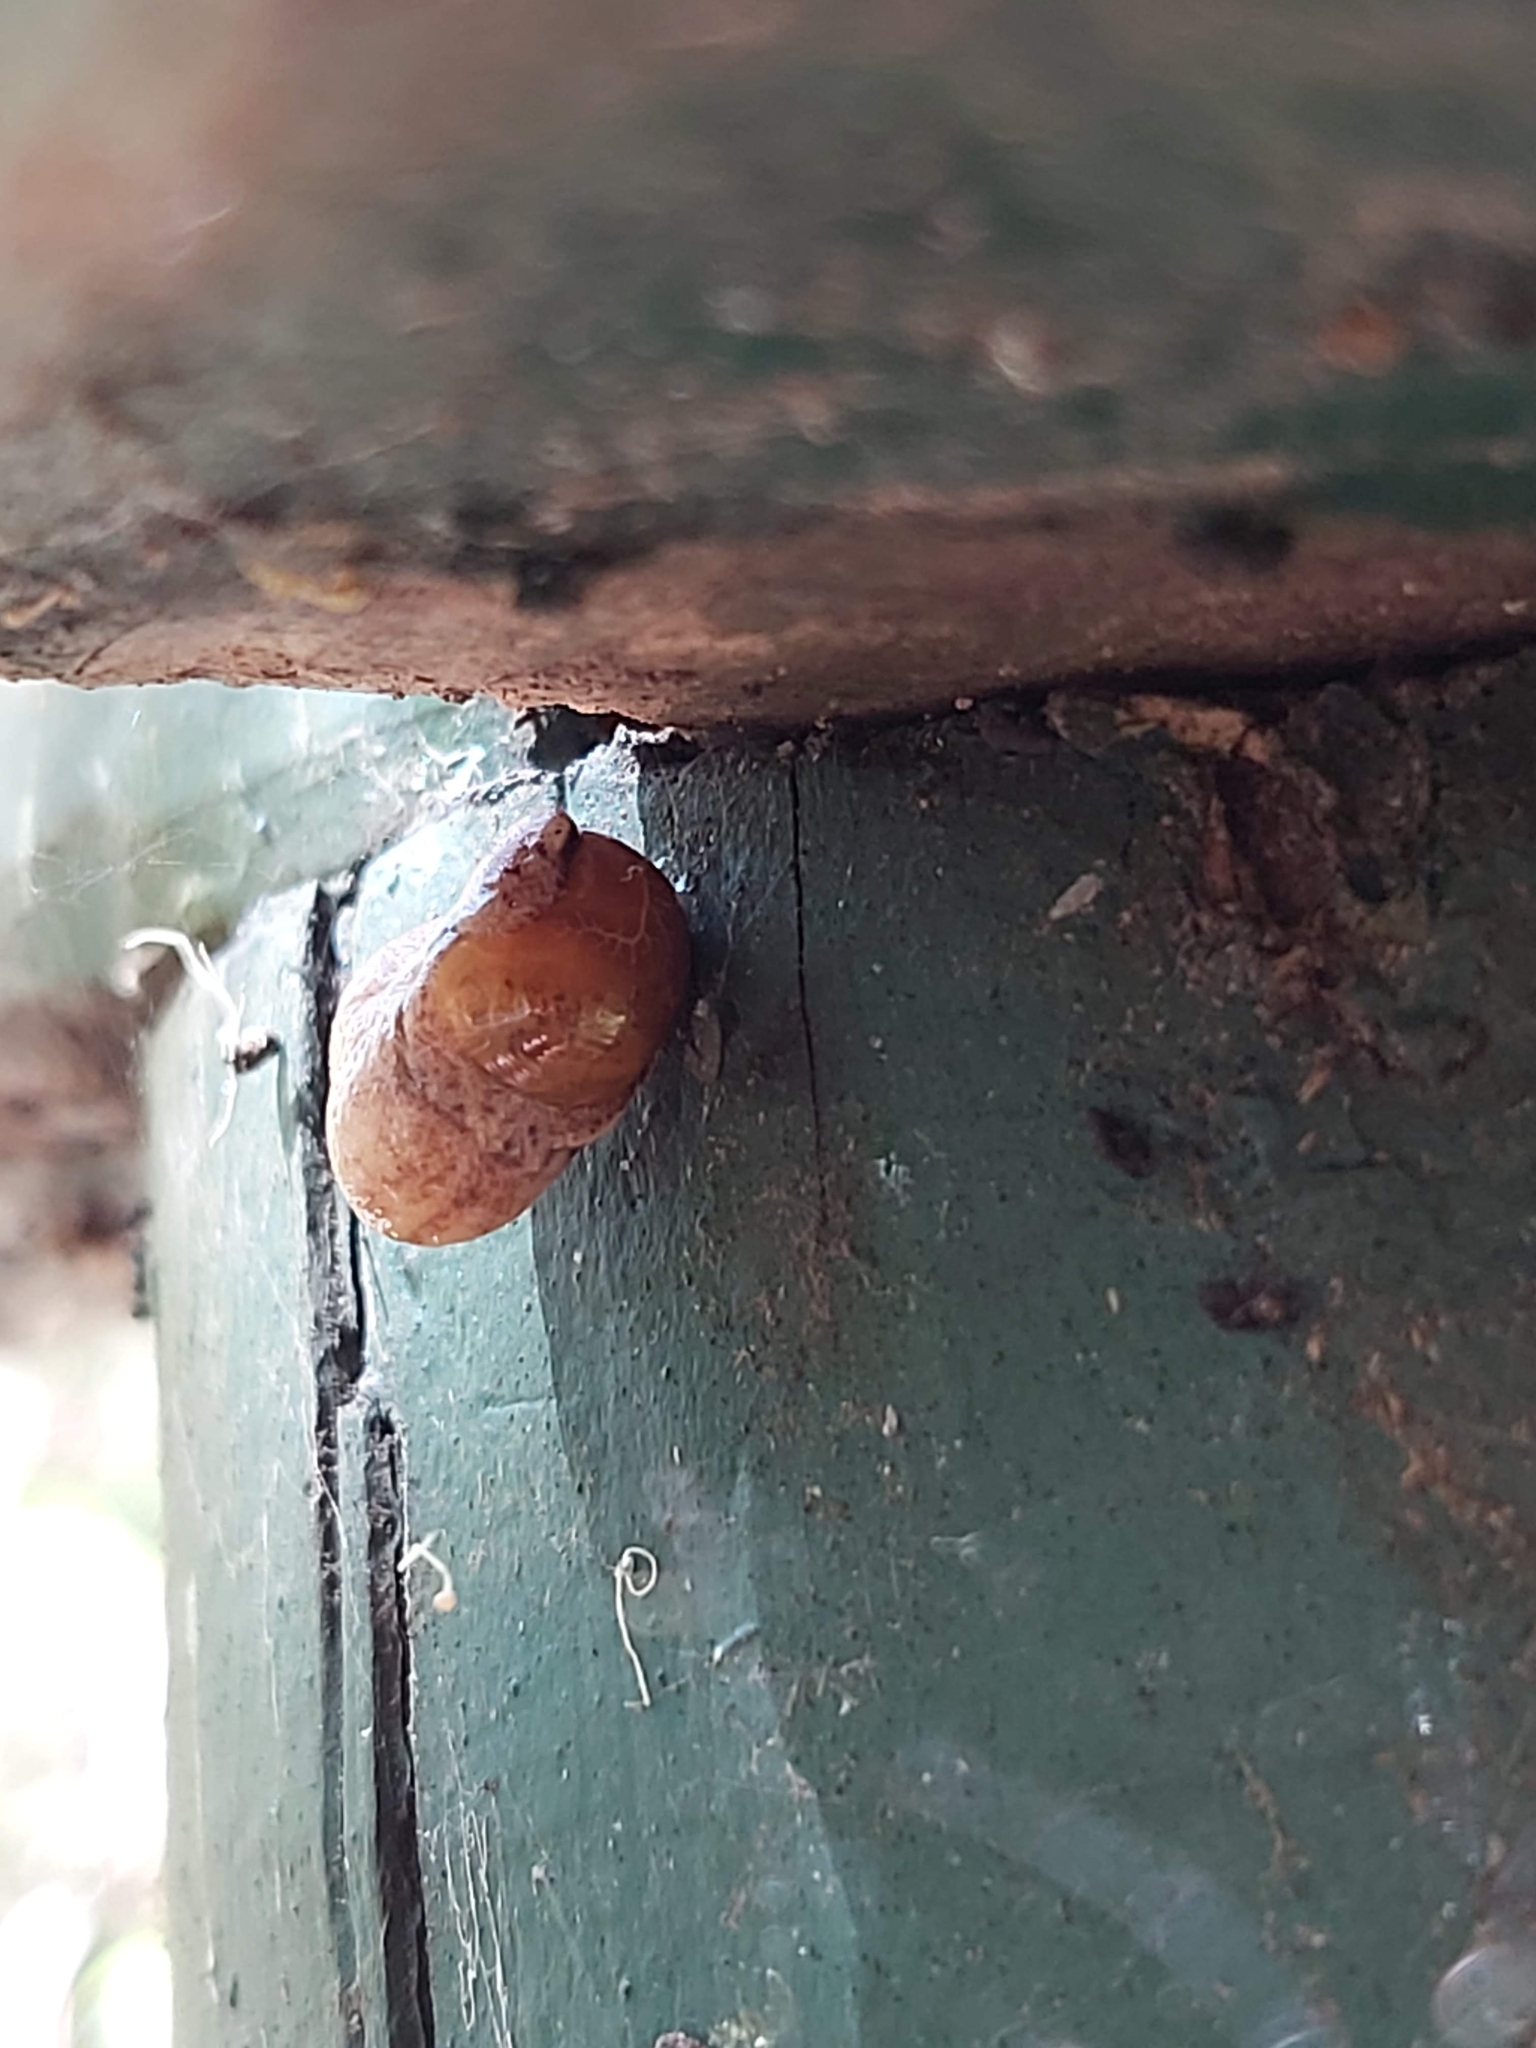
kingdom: Animalia
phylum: Mollusca
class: Gastropoda
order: Stylommatophora
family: Helicarionidae
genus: Ubiquitarion
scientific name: Ubiquitarion iridis
